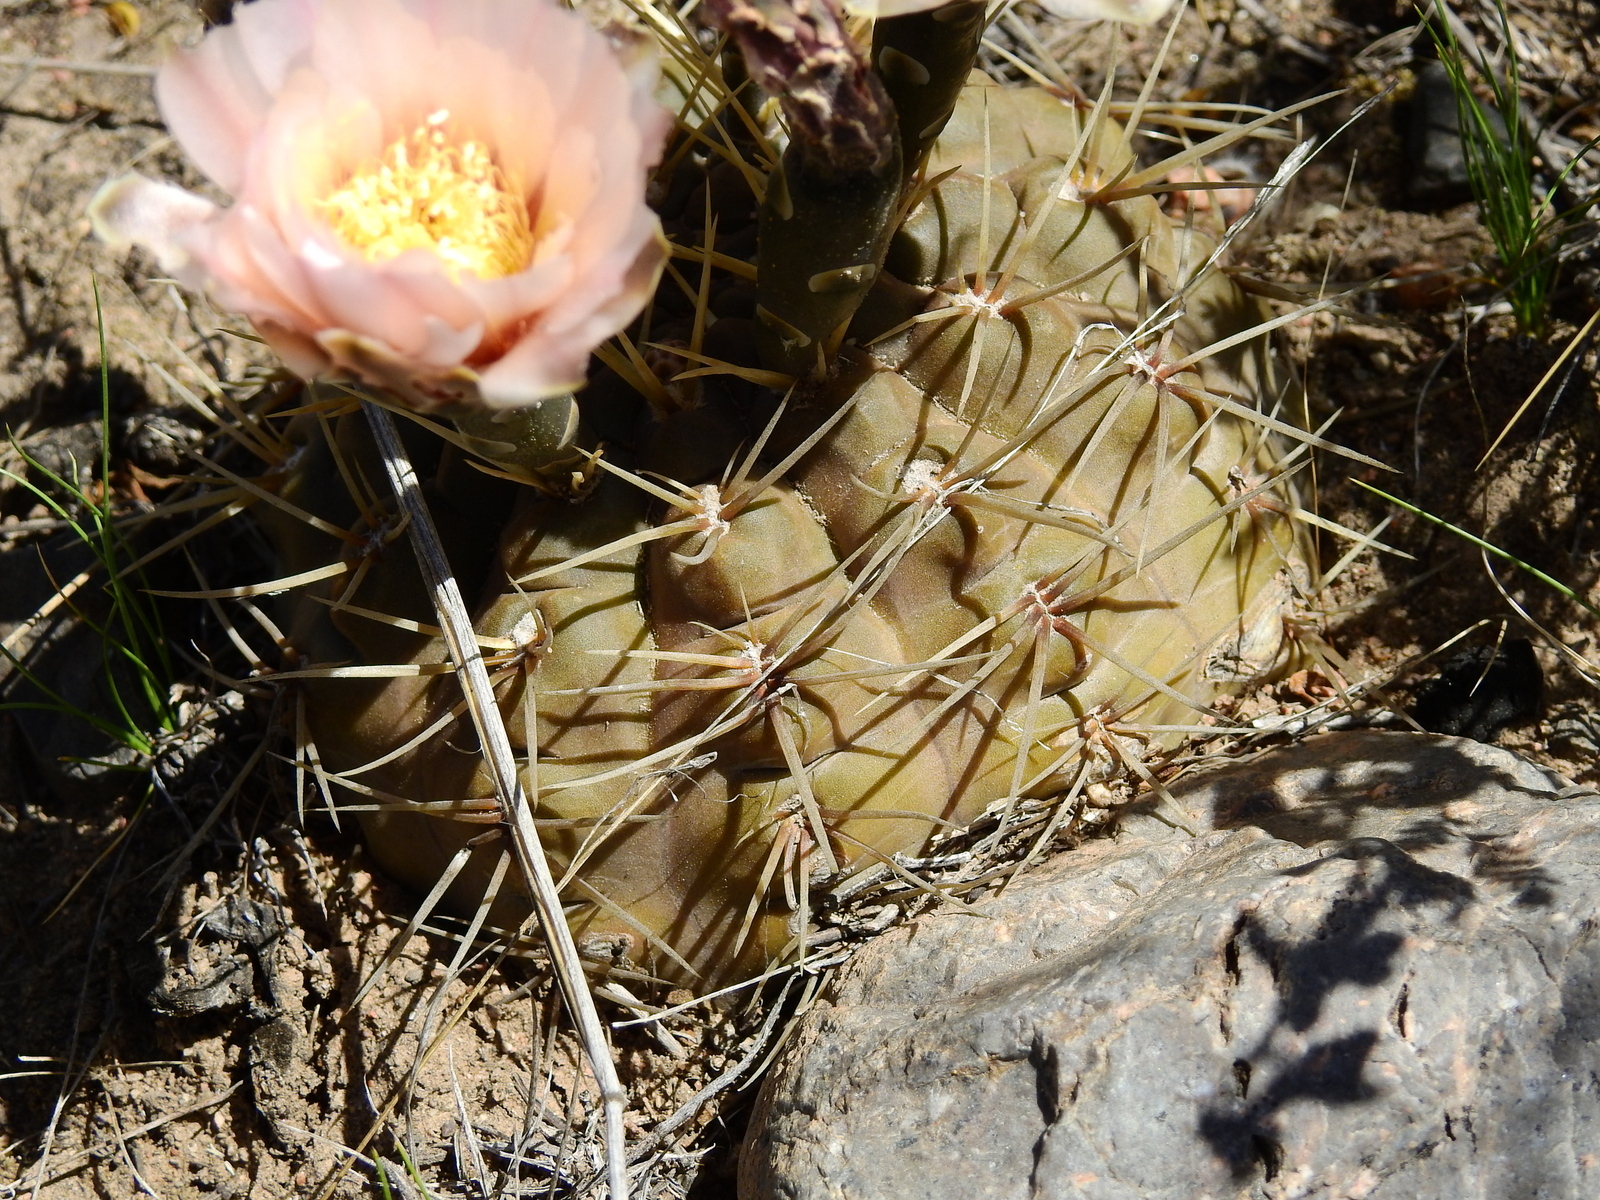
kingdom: Plantae
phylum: Tracheophyta
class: Magnoliopsida
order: Caryophyllales
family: Cactaceae
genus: Gymnocalycium
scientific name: Gymnocalycium striglianum
